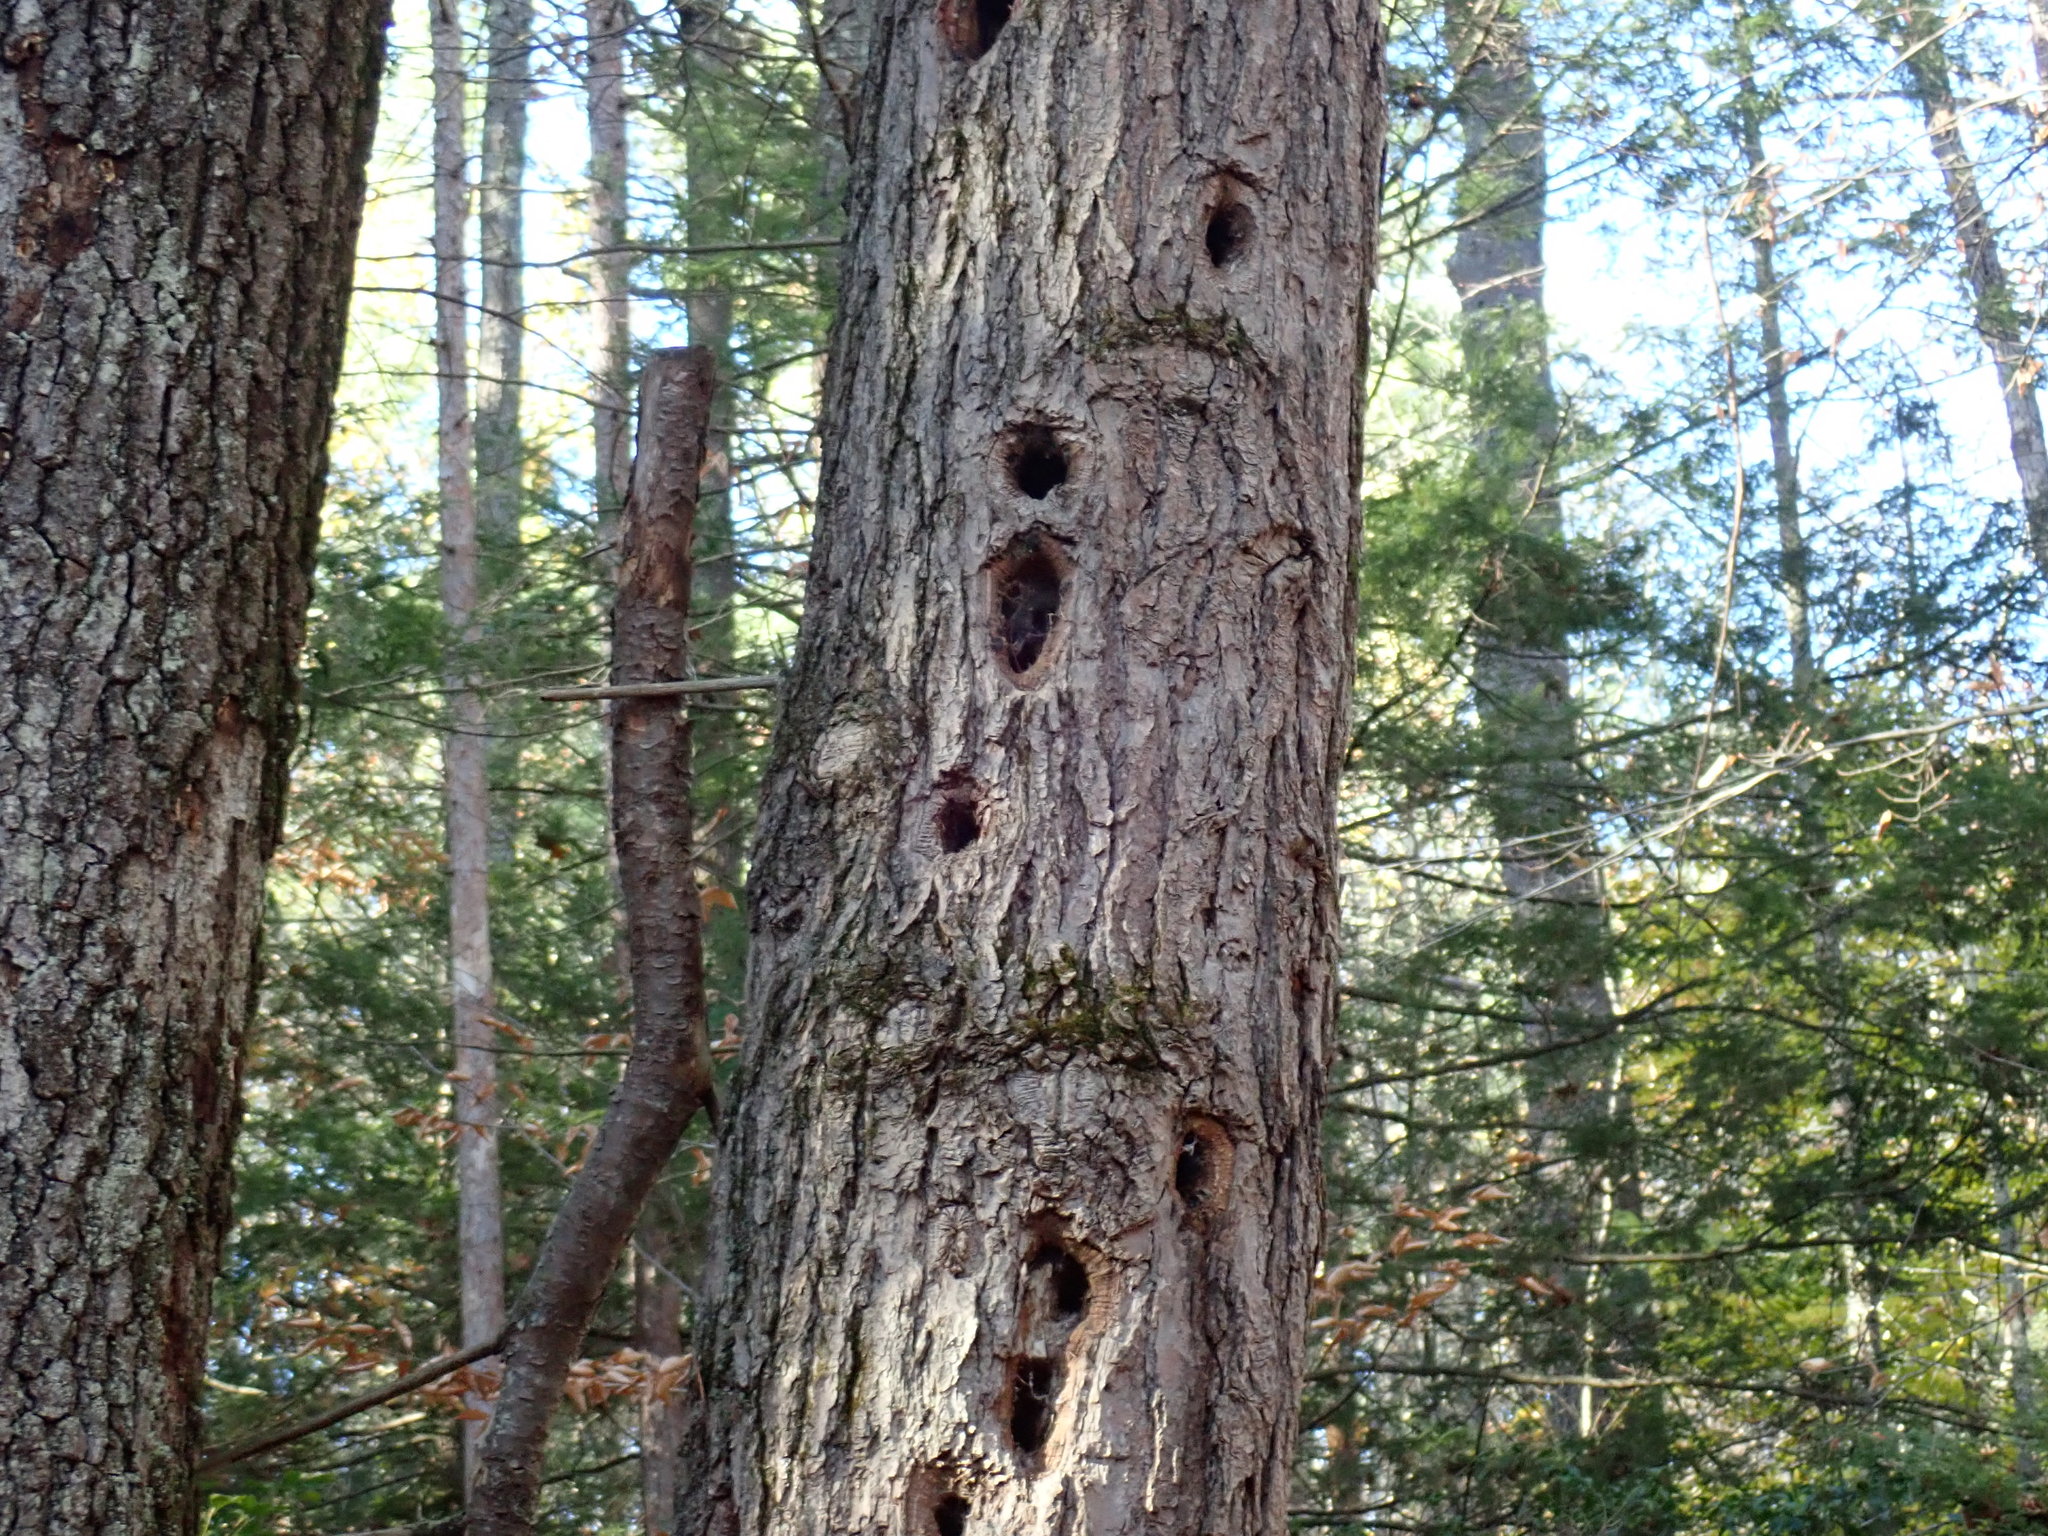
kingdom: Animalia
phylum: Chordata
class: Aves
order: Piciformes
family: Picidae
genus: Dryocopus
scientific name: Dryocopus pileatus
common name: Pileated woodpecker
